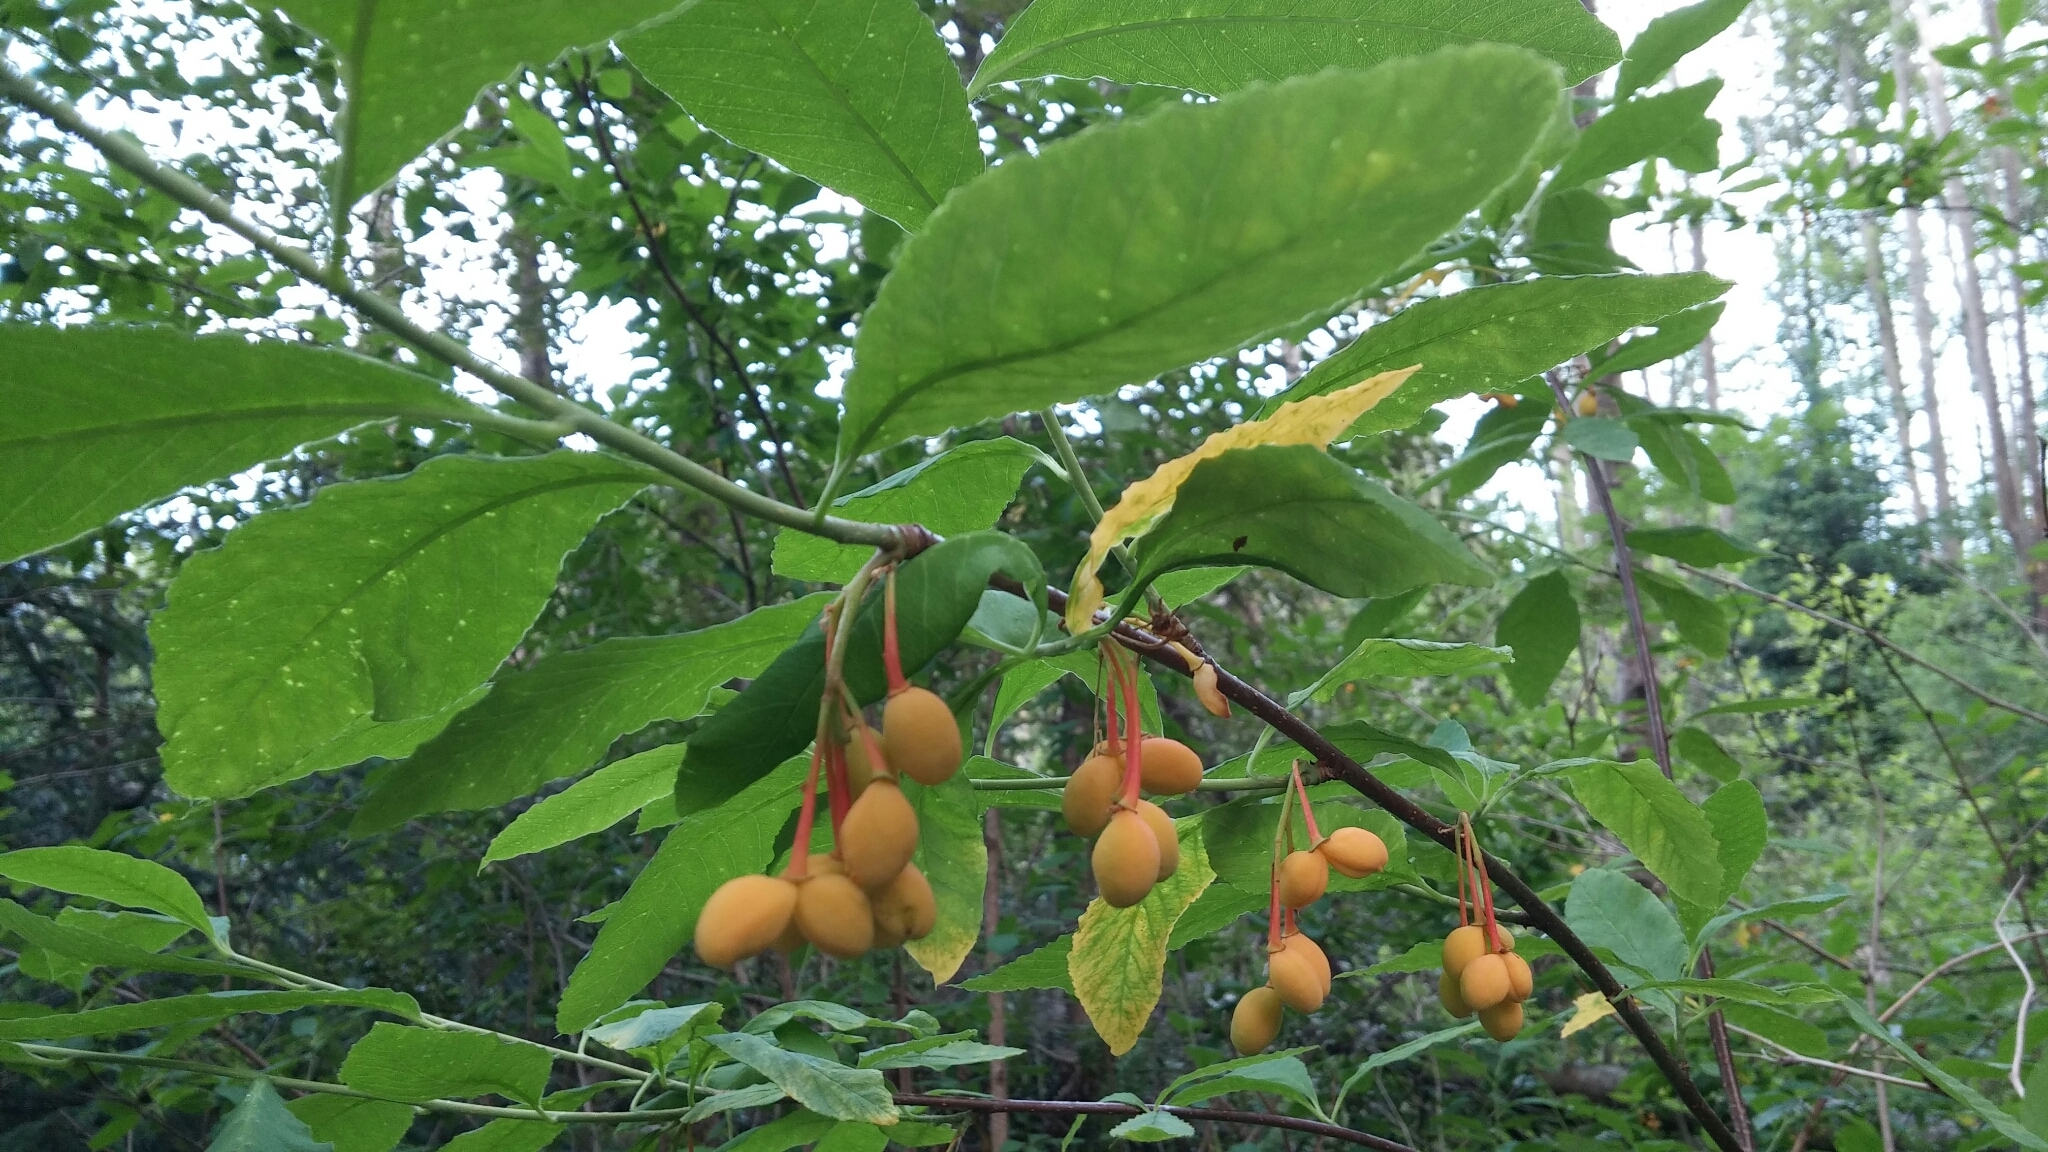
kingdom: Plantae
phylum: Tracheophyta
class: Magnoliopsida
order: Rosales
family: Rosaceae
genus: Oemleria
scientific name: Oemleria cerasiformis
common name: Osoberry
